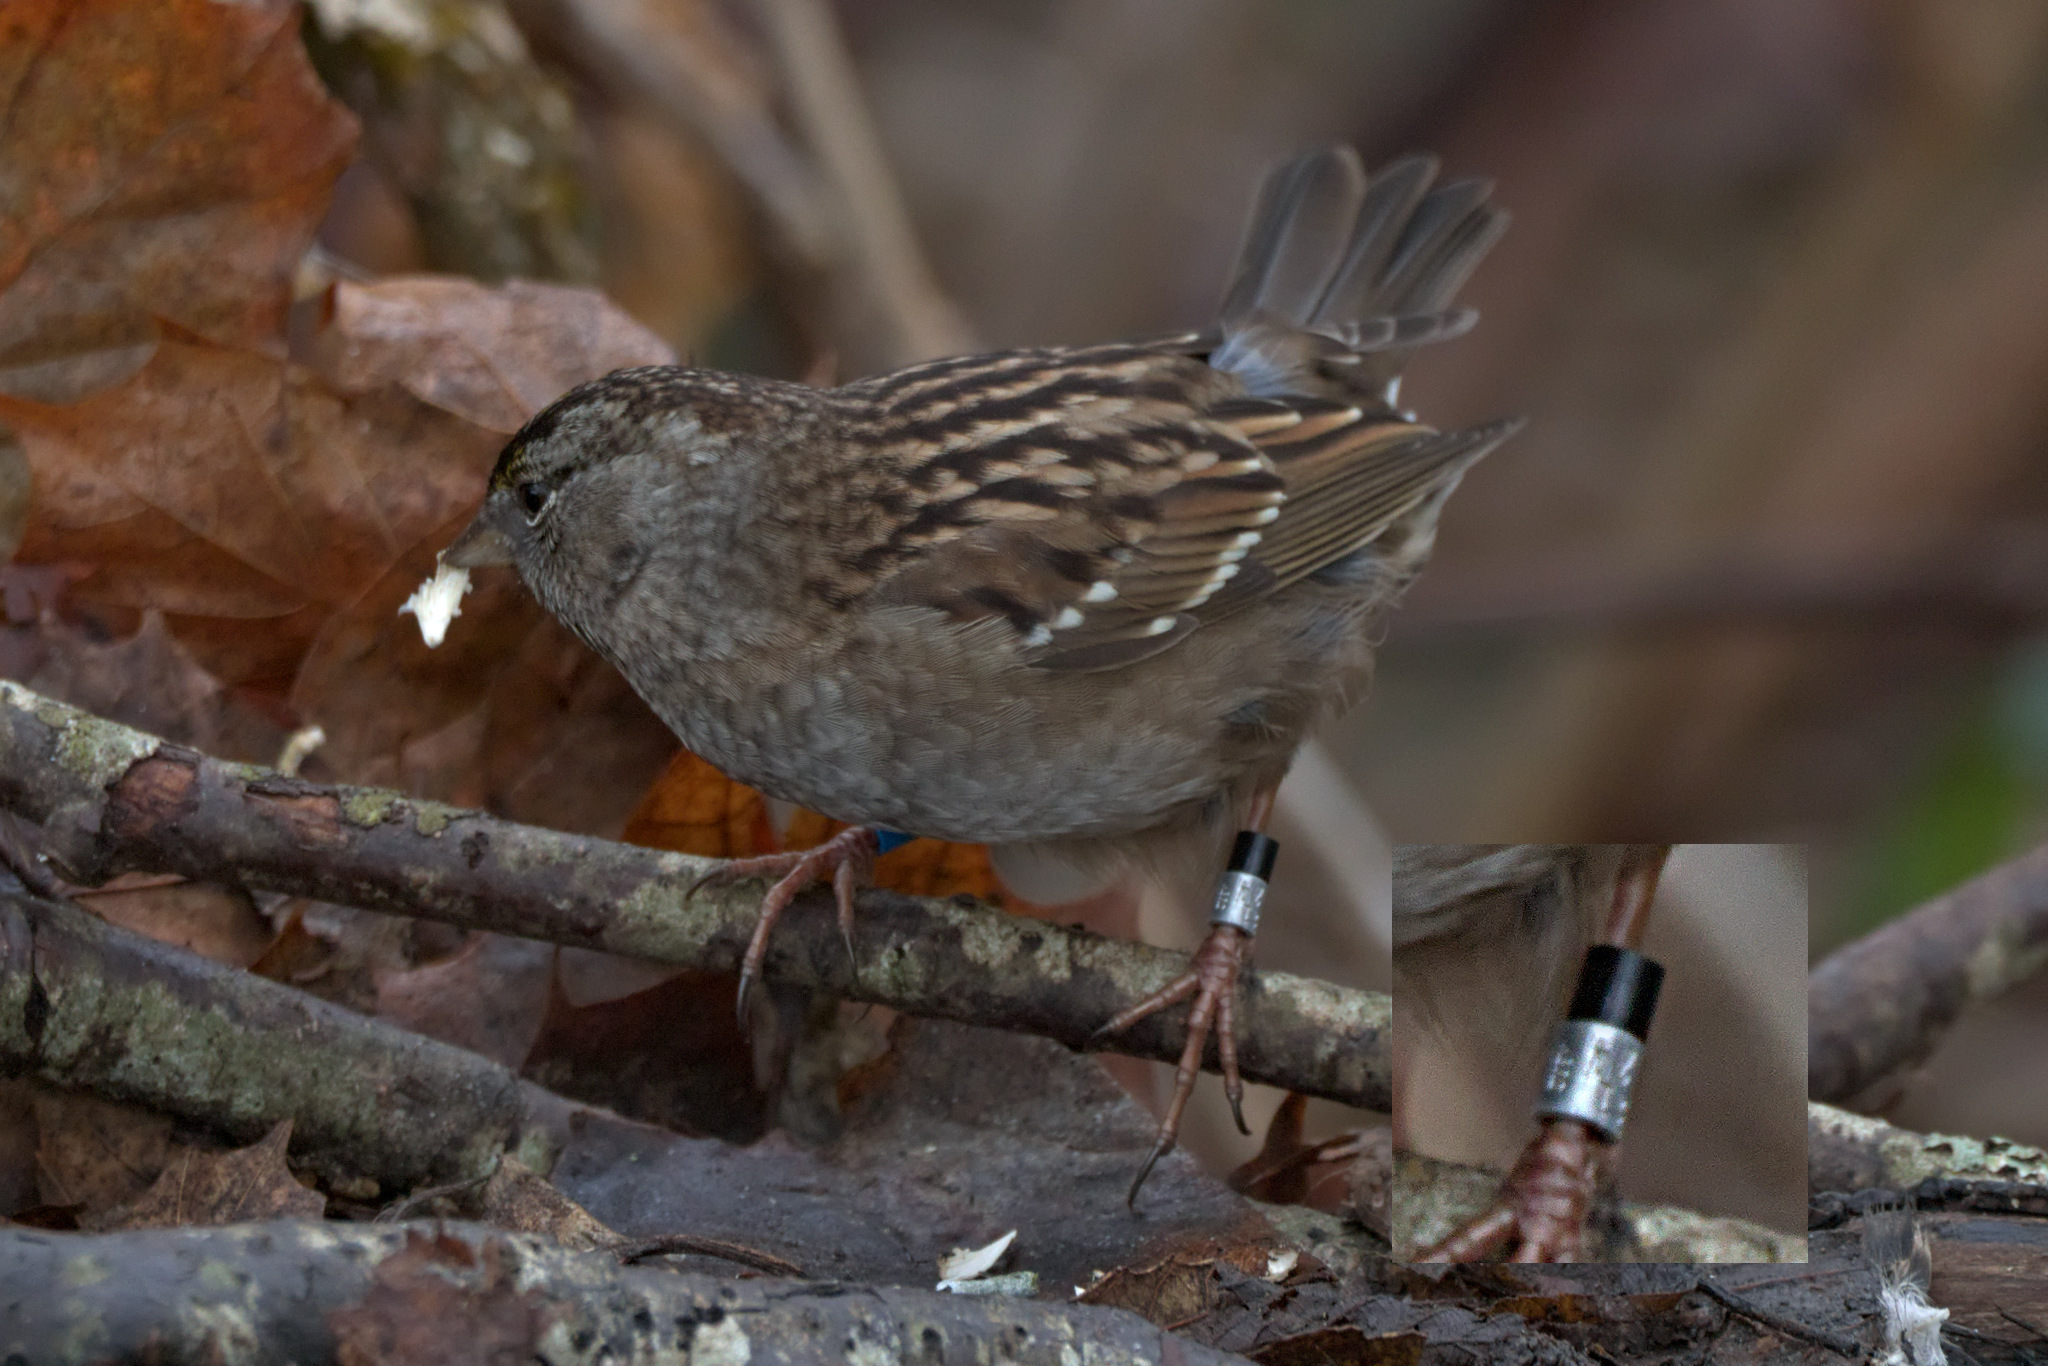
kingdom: Animalia
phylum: Chordata
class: Aves
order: Passeriformes
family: Passerellidae
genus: Zonotrichia
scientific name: Zonotrichia atricapilla
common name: Golden-crowned sparrow
